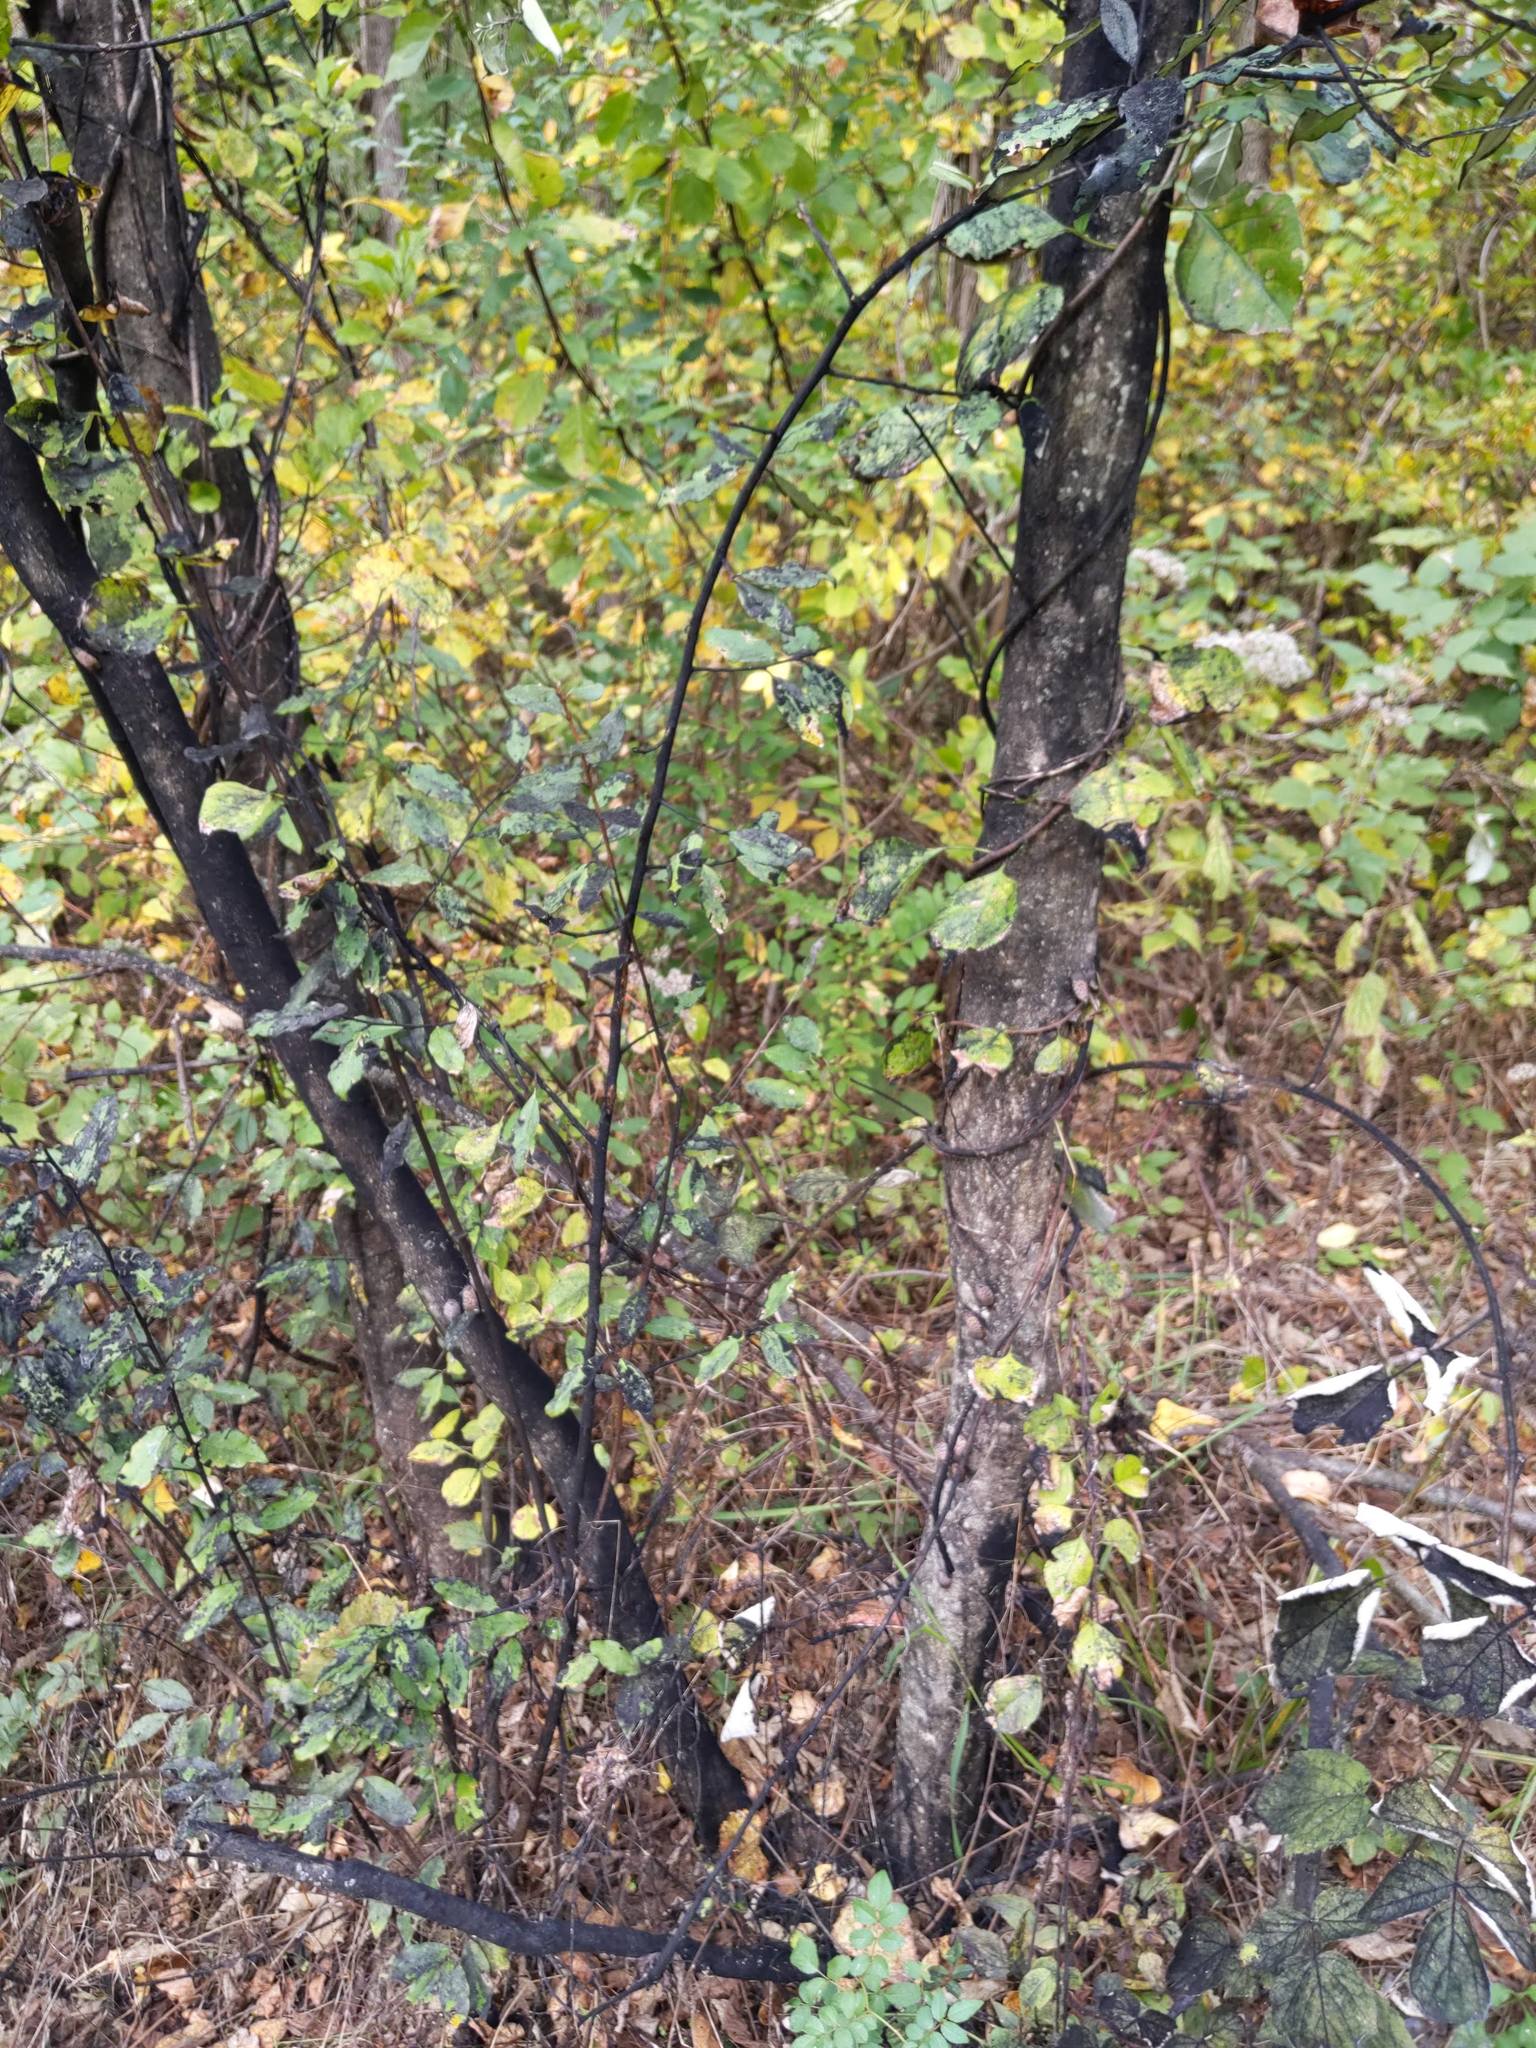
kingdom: Animalia
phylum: Arthropoda
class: Insecta
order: Hemiptera
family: Fulgoridae
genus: Lycorma
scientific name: Lycorma delicatula
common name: Spotted lanternfly
